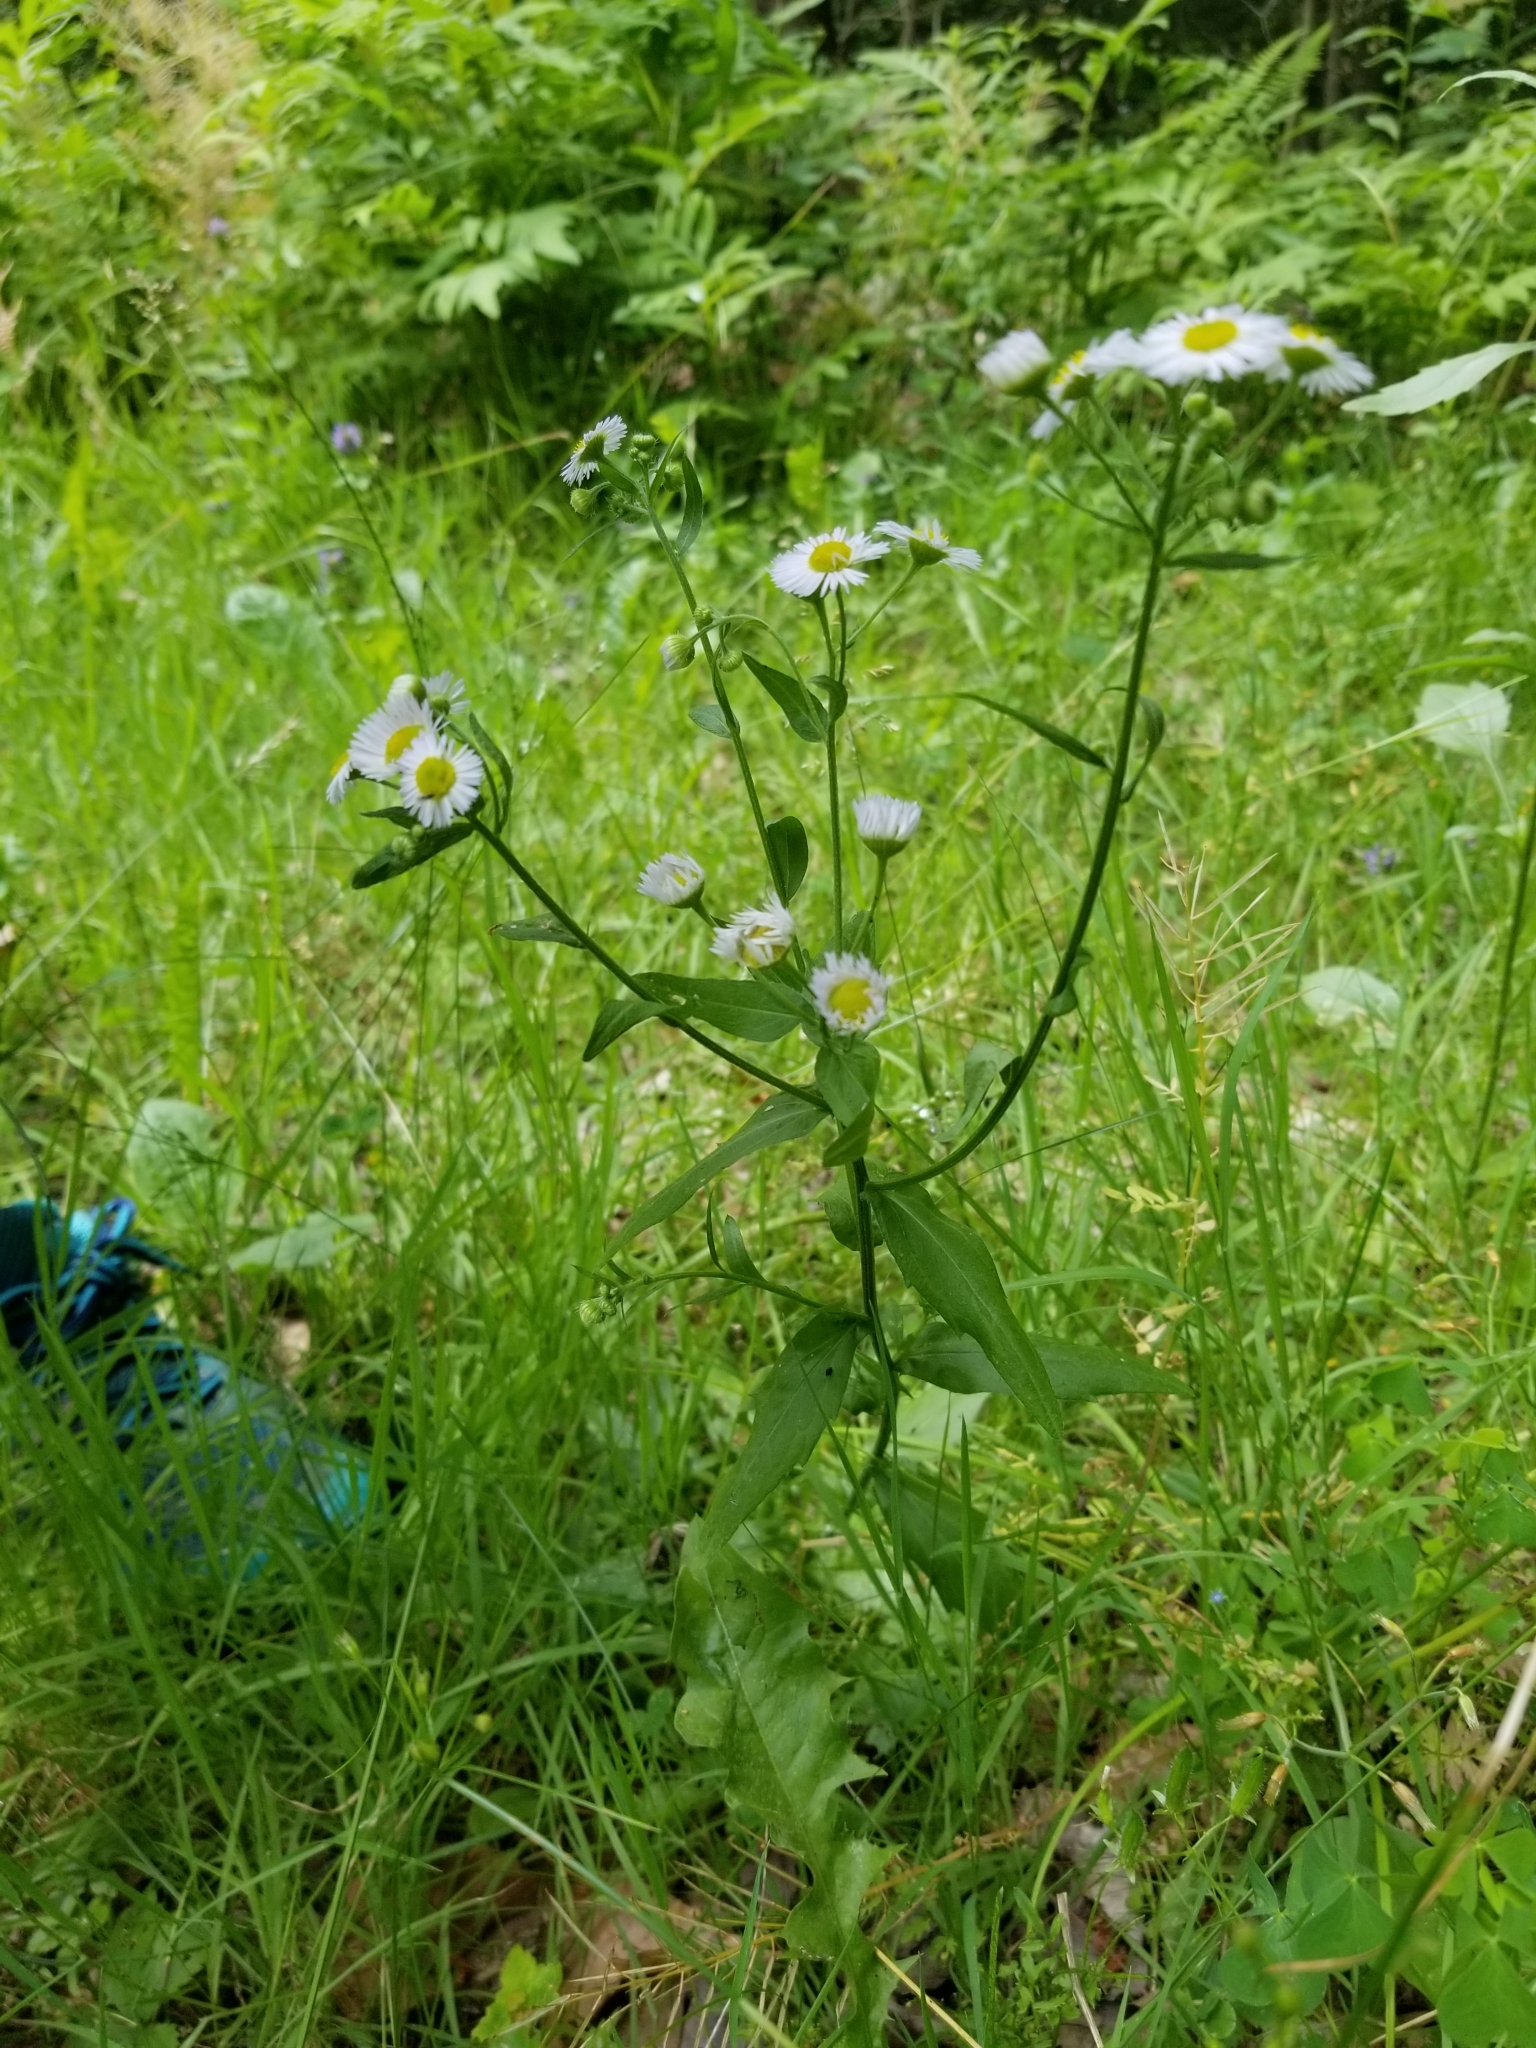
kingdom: Plantae
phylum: Tracheophyta
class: Magnoliopsida
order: Asterales
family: Asteraceae
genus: Erigeron
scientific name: Erigeron annuus
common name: Tall fleabane
